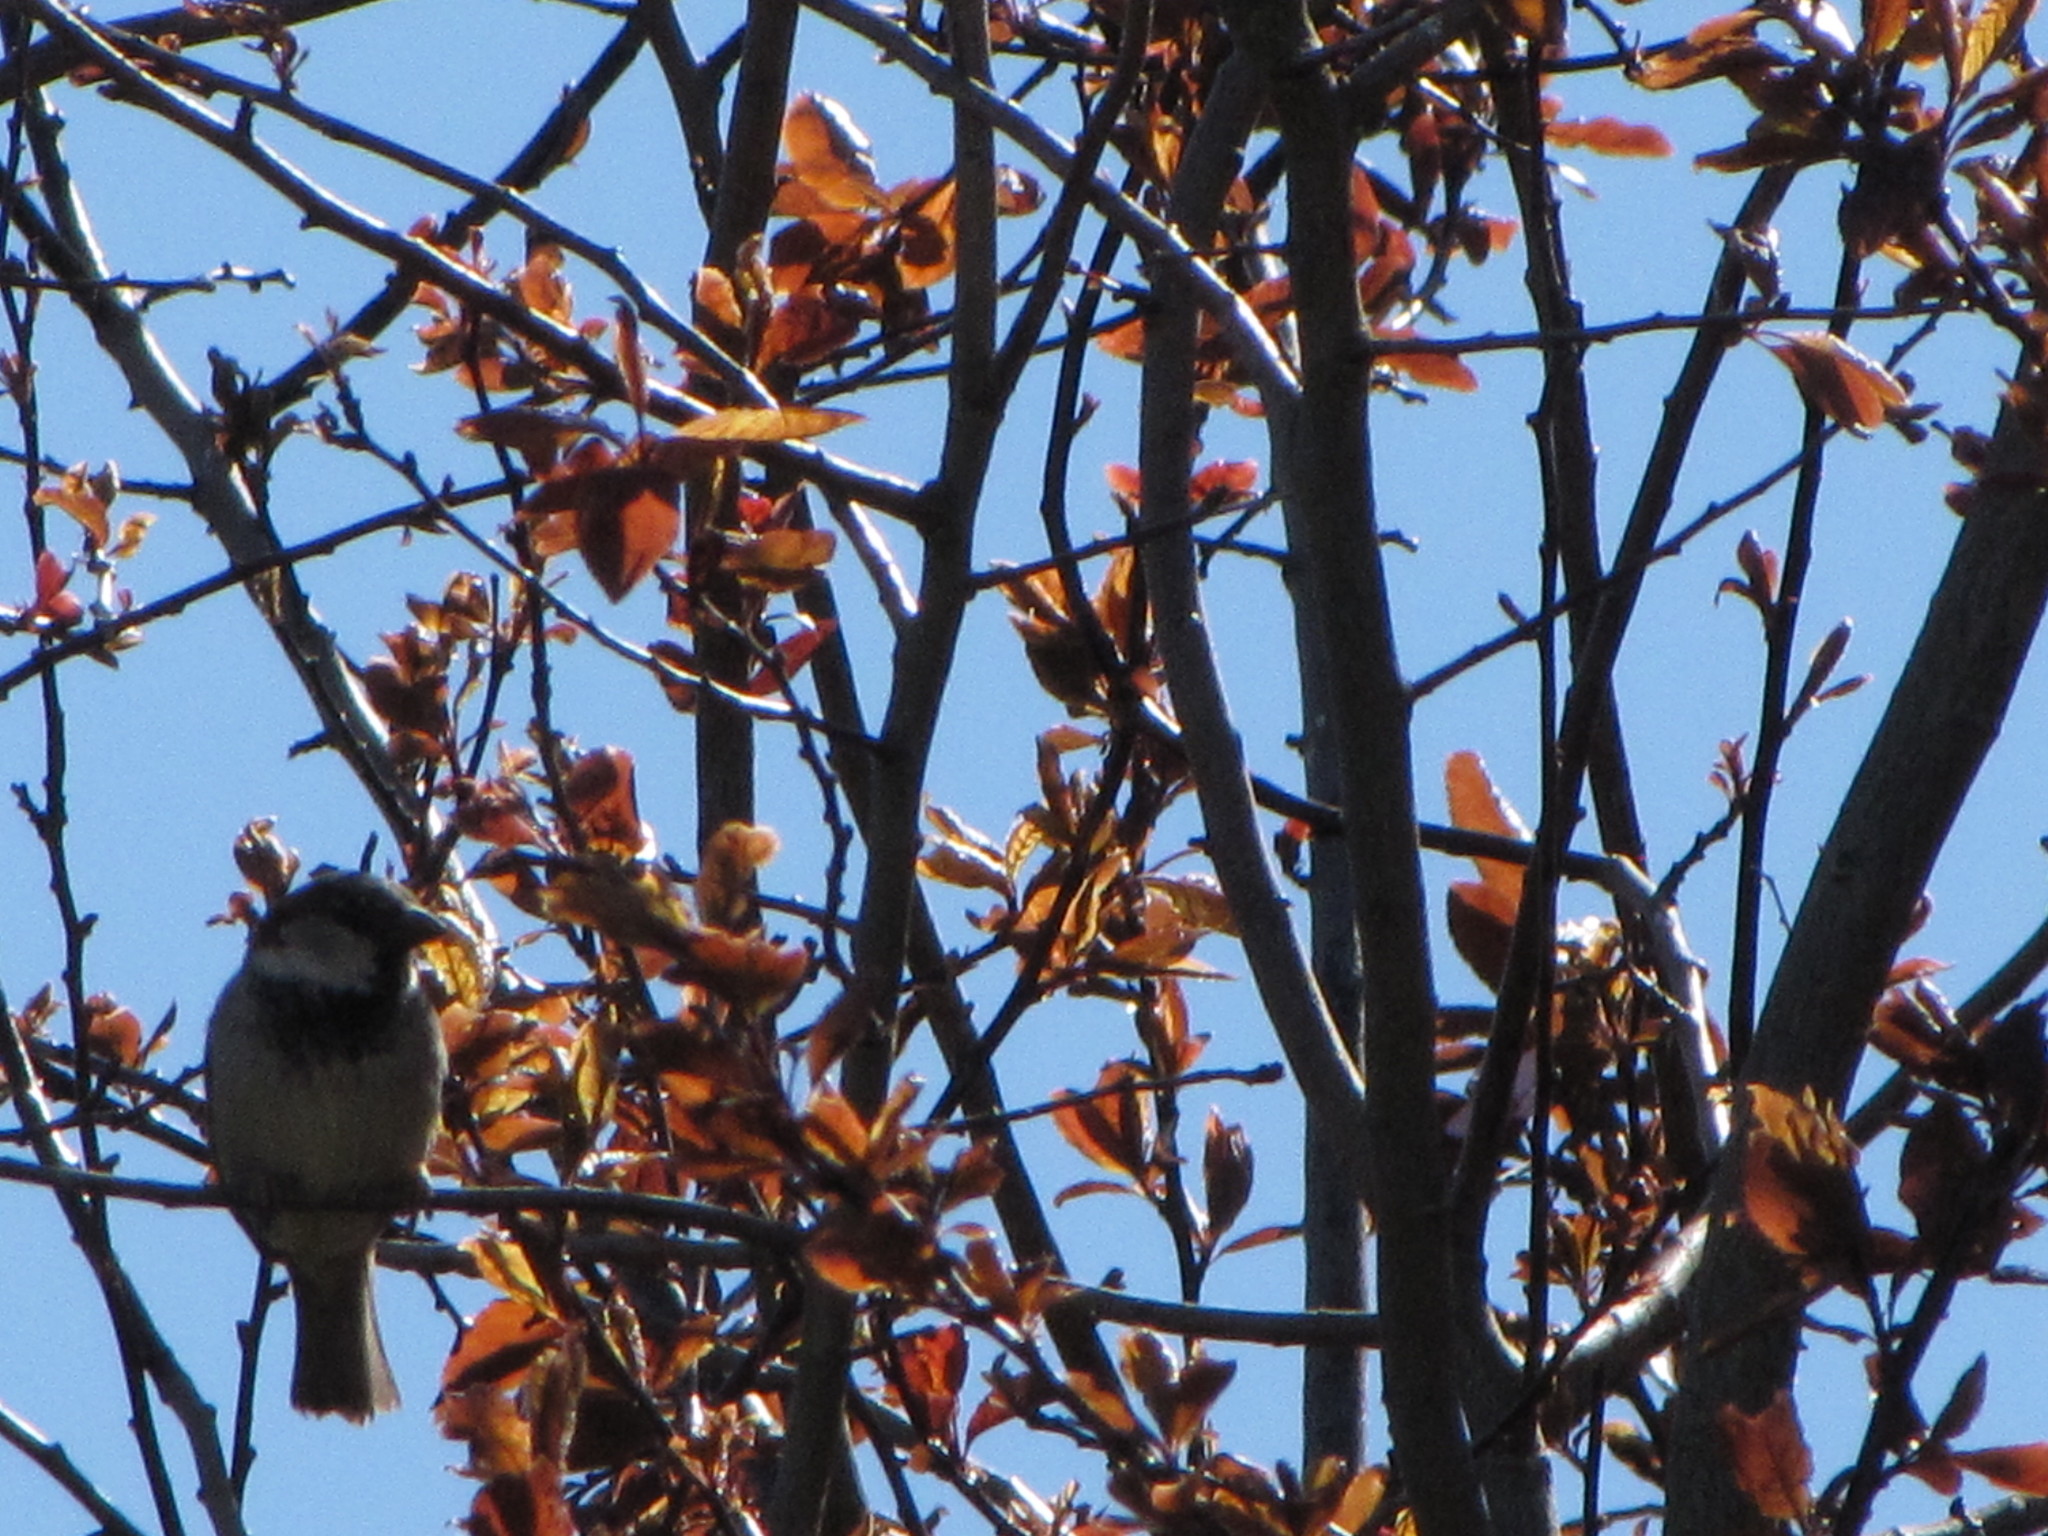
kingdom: Animalia
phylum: Chordata
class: Aves
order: Passeriformes
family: Passeridae
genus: Passer
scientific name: Passer domesticus
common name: House sparrow
